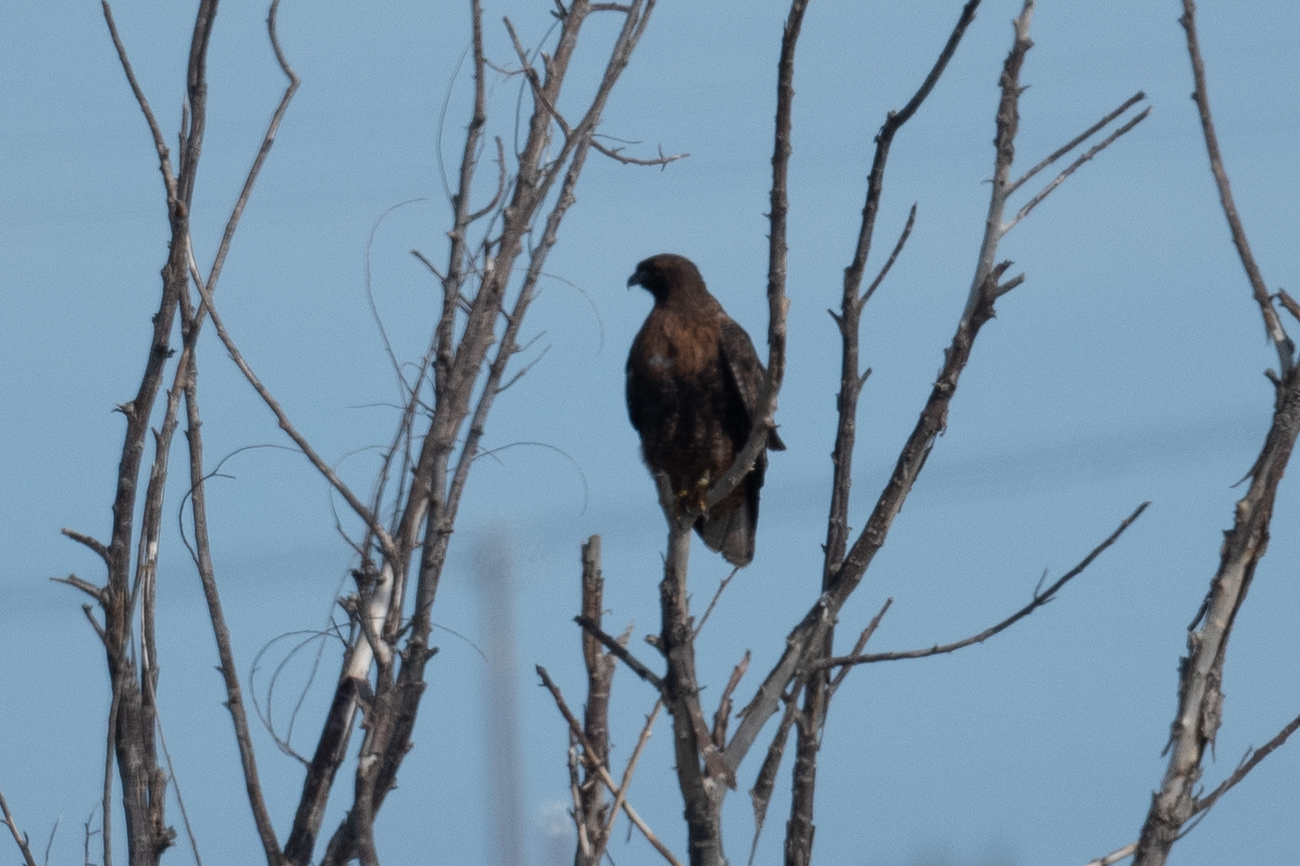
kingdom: Animalia
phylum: Chordata
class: Aves
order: Accipitriformes
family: Accipitridae
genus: Buteo
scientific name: Buteo jamaicensis
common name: Red-tailed hawk
